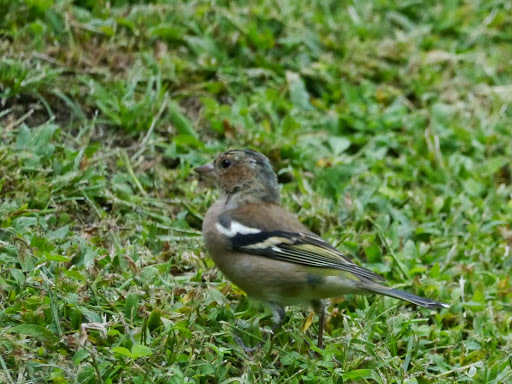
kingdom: Animalia
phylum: Chordata
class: Aves
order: Passeriformes
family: Fringillidae
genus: Fringilla
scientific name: Fringilla coelebs
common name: Common chaffinch
